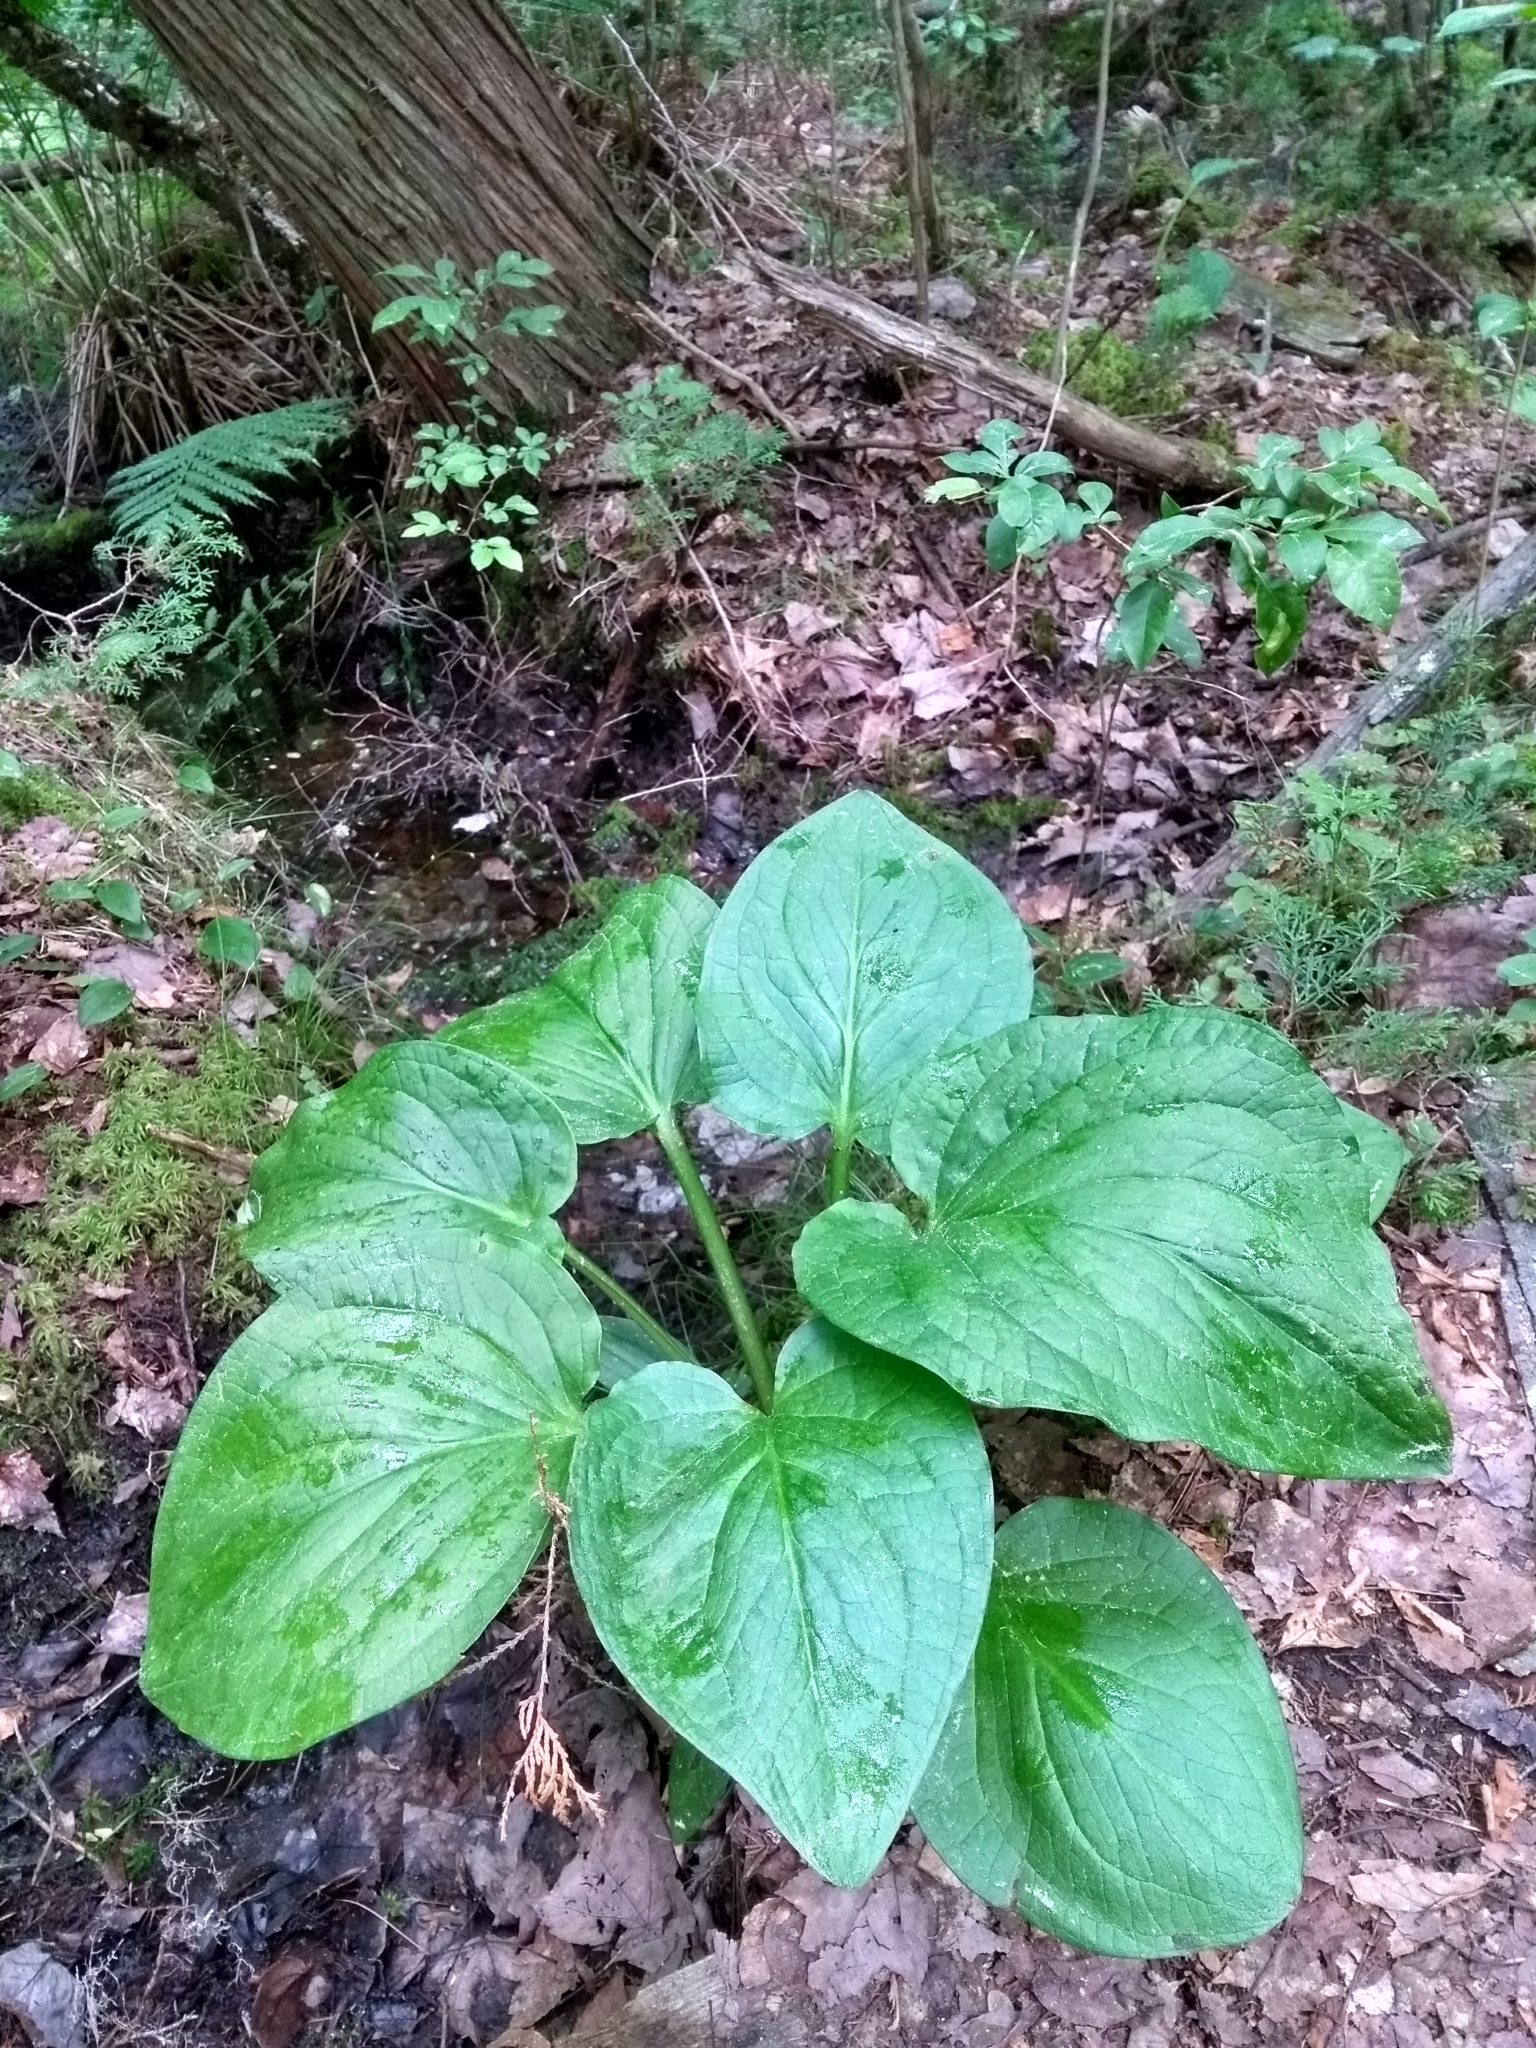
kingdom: Plantae
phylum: Tracheophyta
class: Liliopsida
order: Alismatales
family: Araceae
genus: Symplocarpus
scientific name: Symplocarpus foetidus
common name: Eastern skunk cabbage
